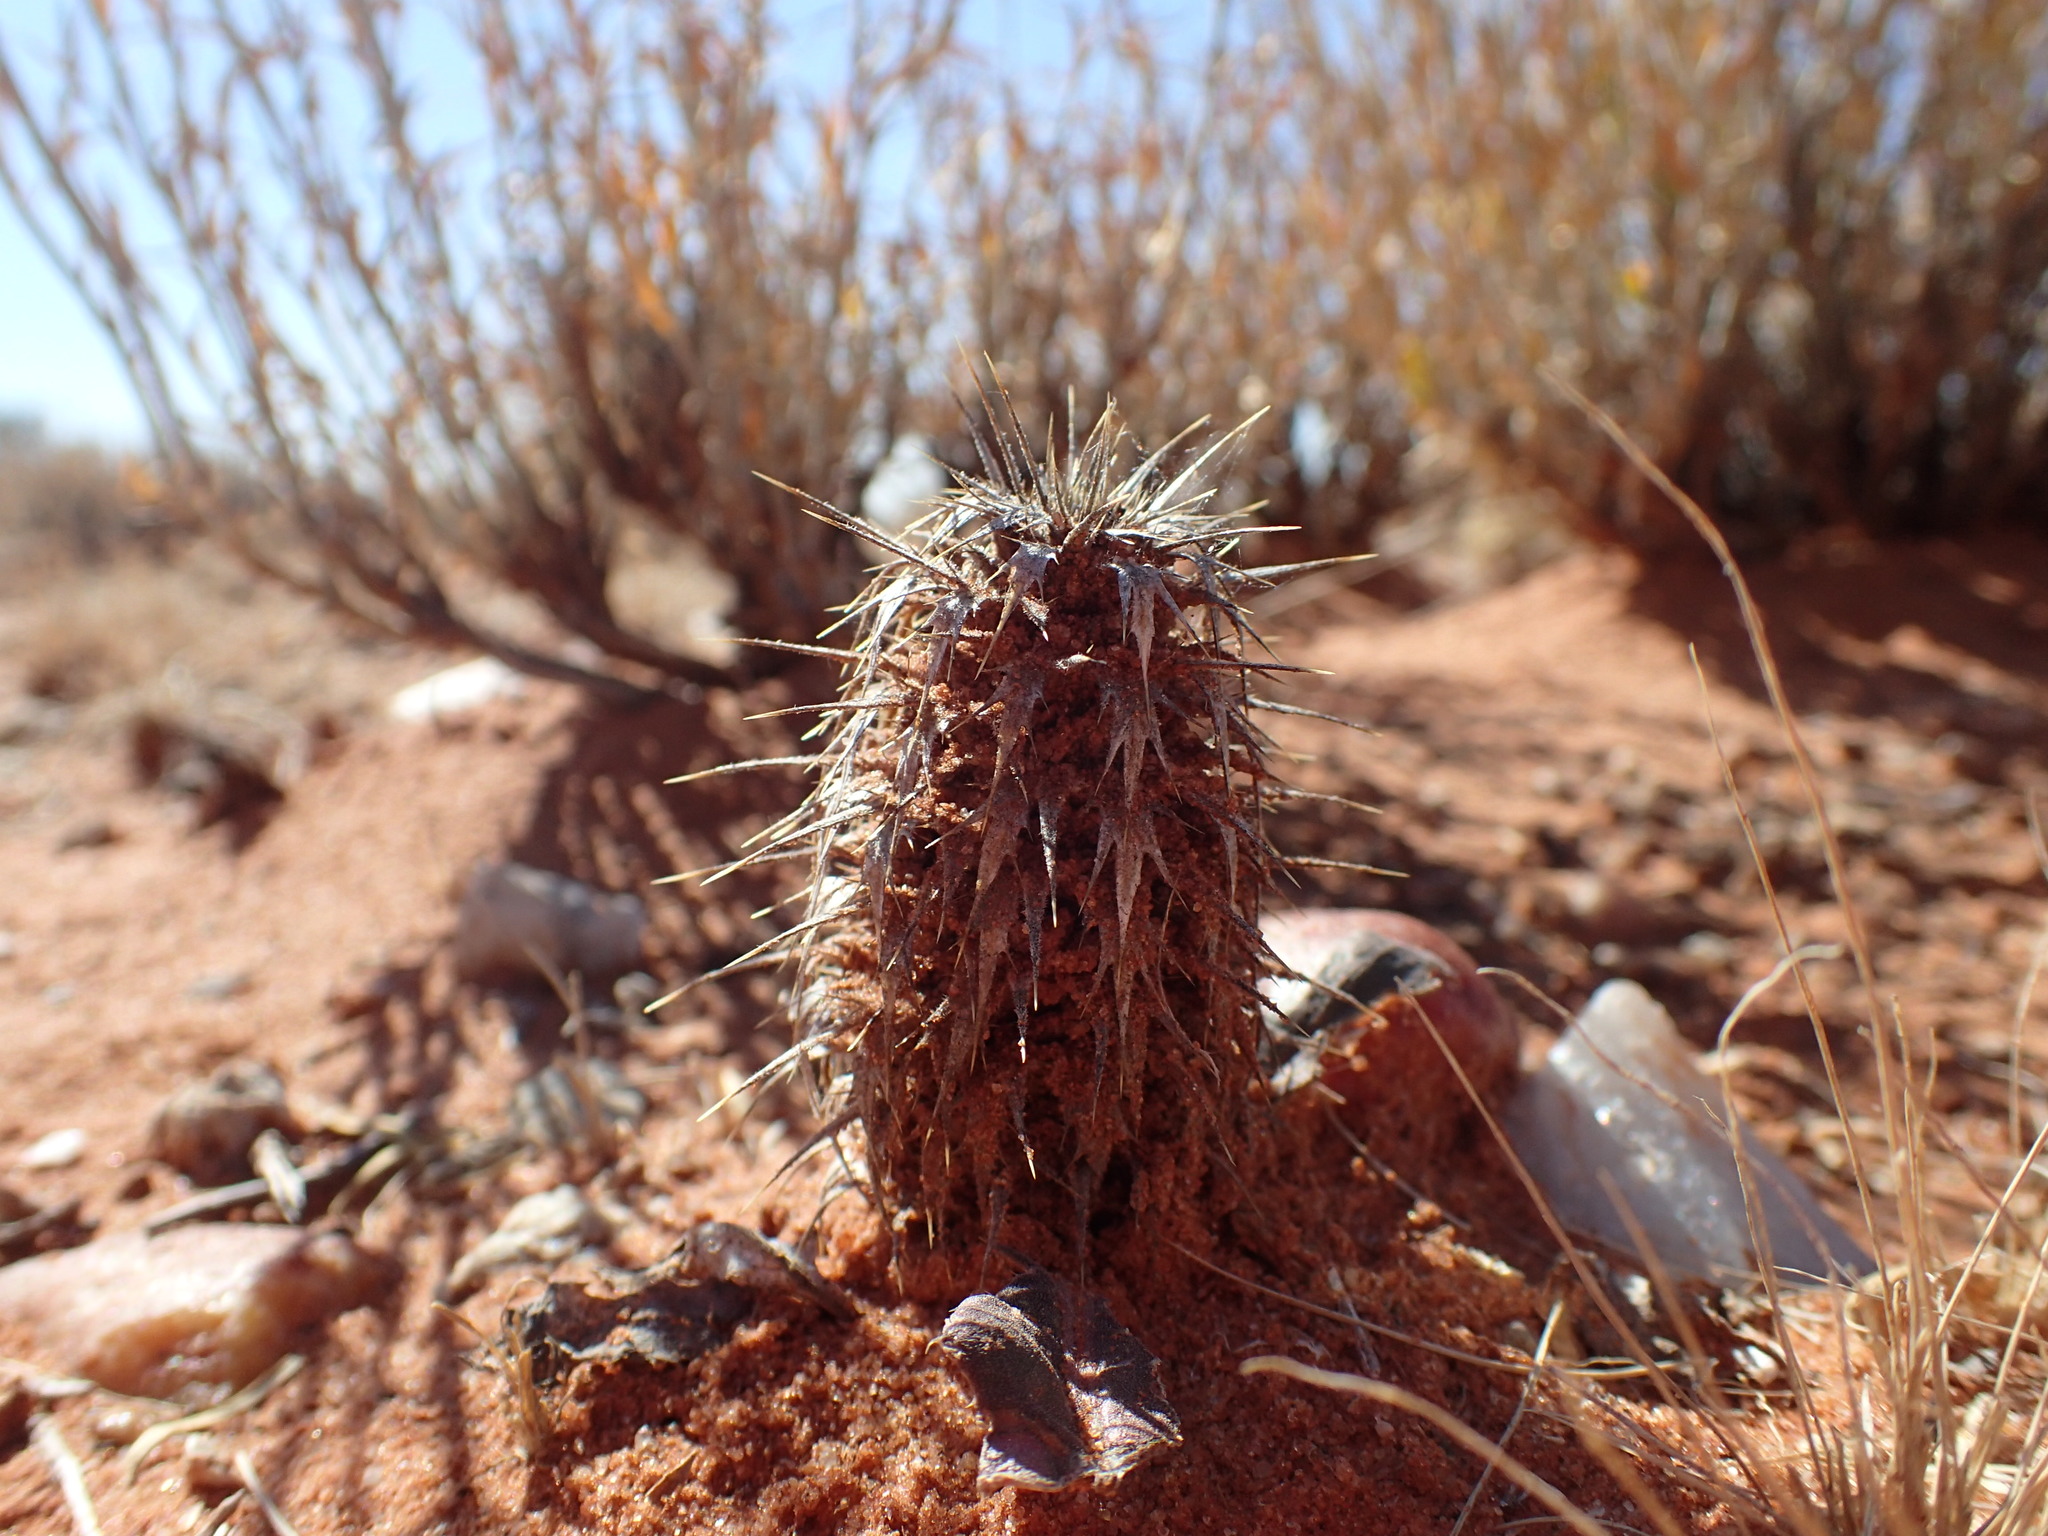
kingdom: Plantae
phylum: Tracheophyta
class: Magnoliopsida
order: Lamiales
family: Acanthaceae
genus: Acanthopsis
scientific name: Acanthopsis hoffmannseggiana
